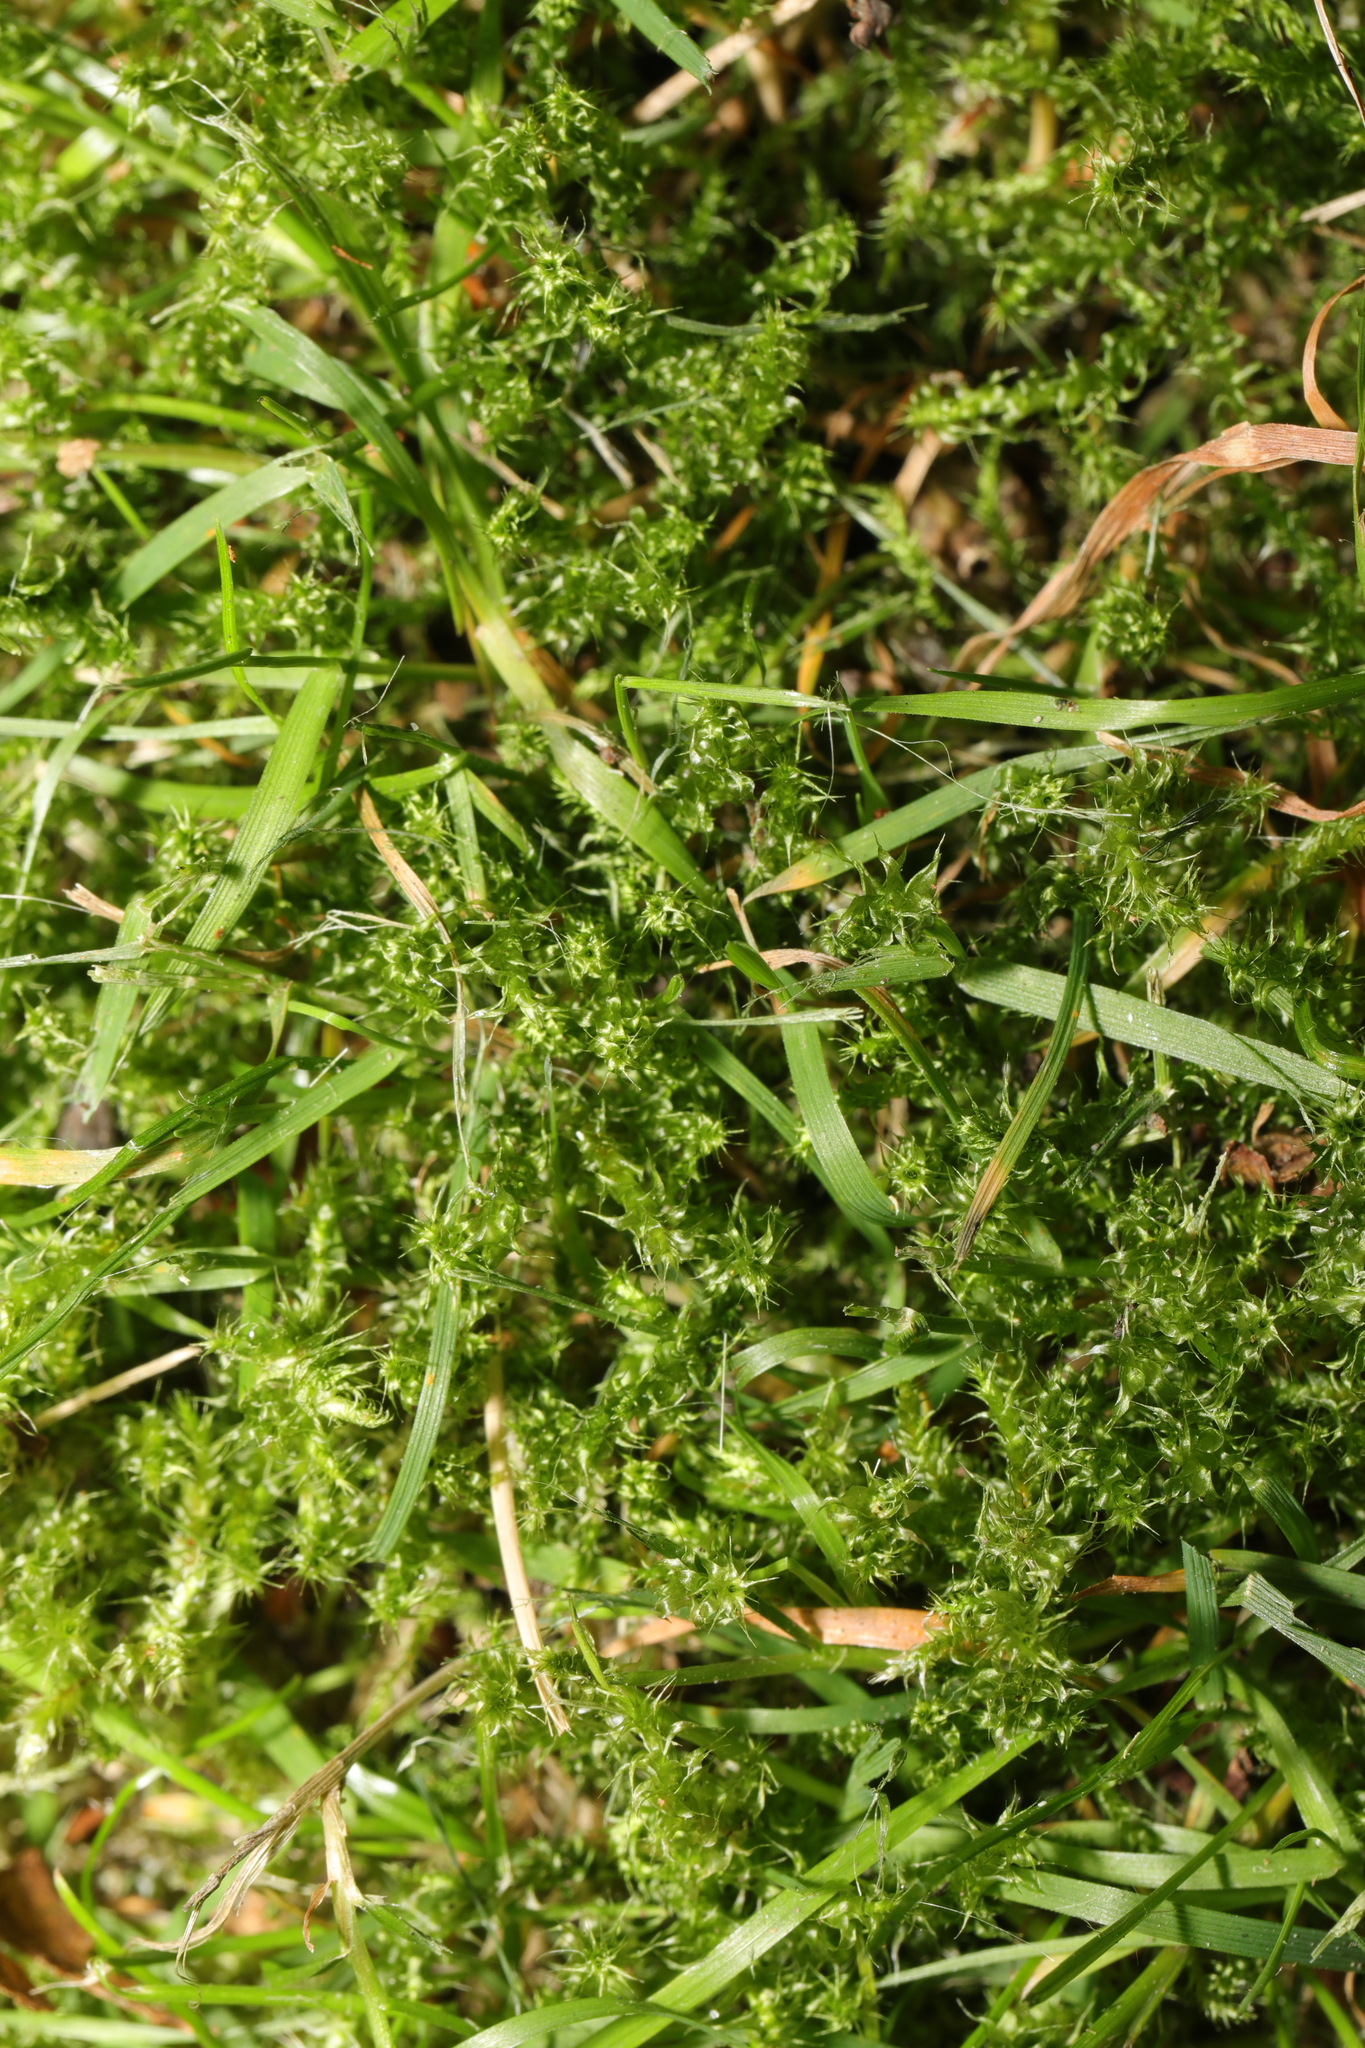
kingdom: Plantae
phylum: Bryophyta
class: Bryopsida
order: Hypnales
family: Hylocomiaceae
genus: Rhytidiadelphus
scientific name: Rhytidiadelphus squarrosus
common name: Springy turf-moss
